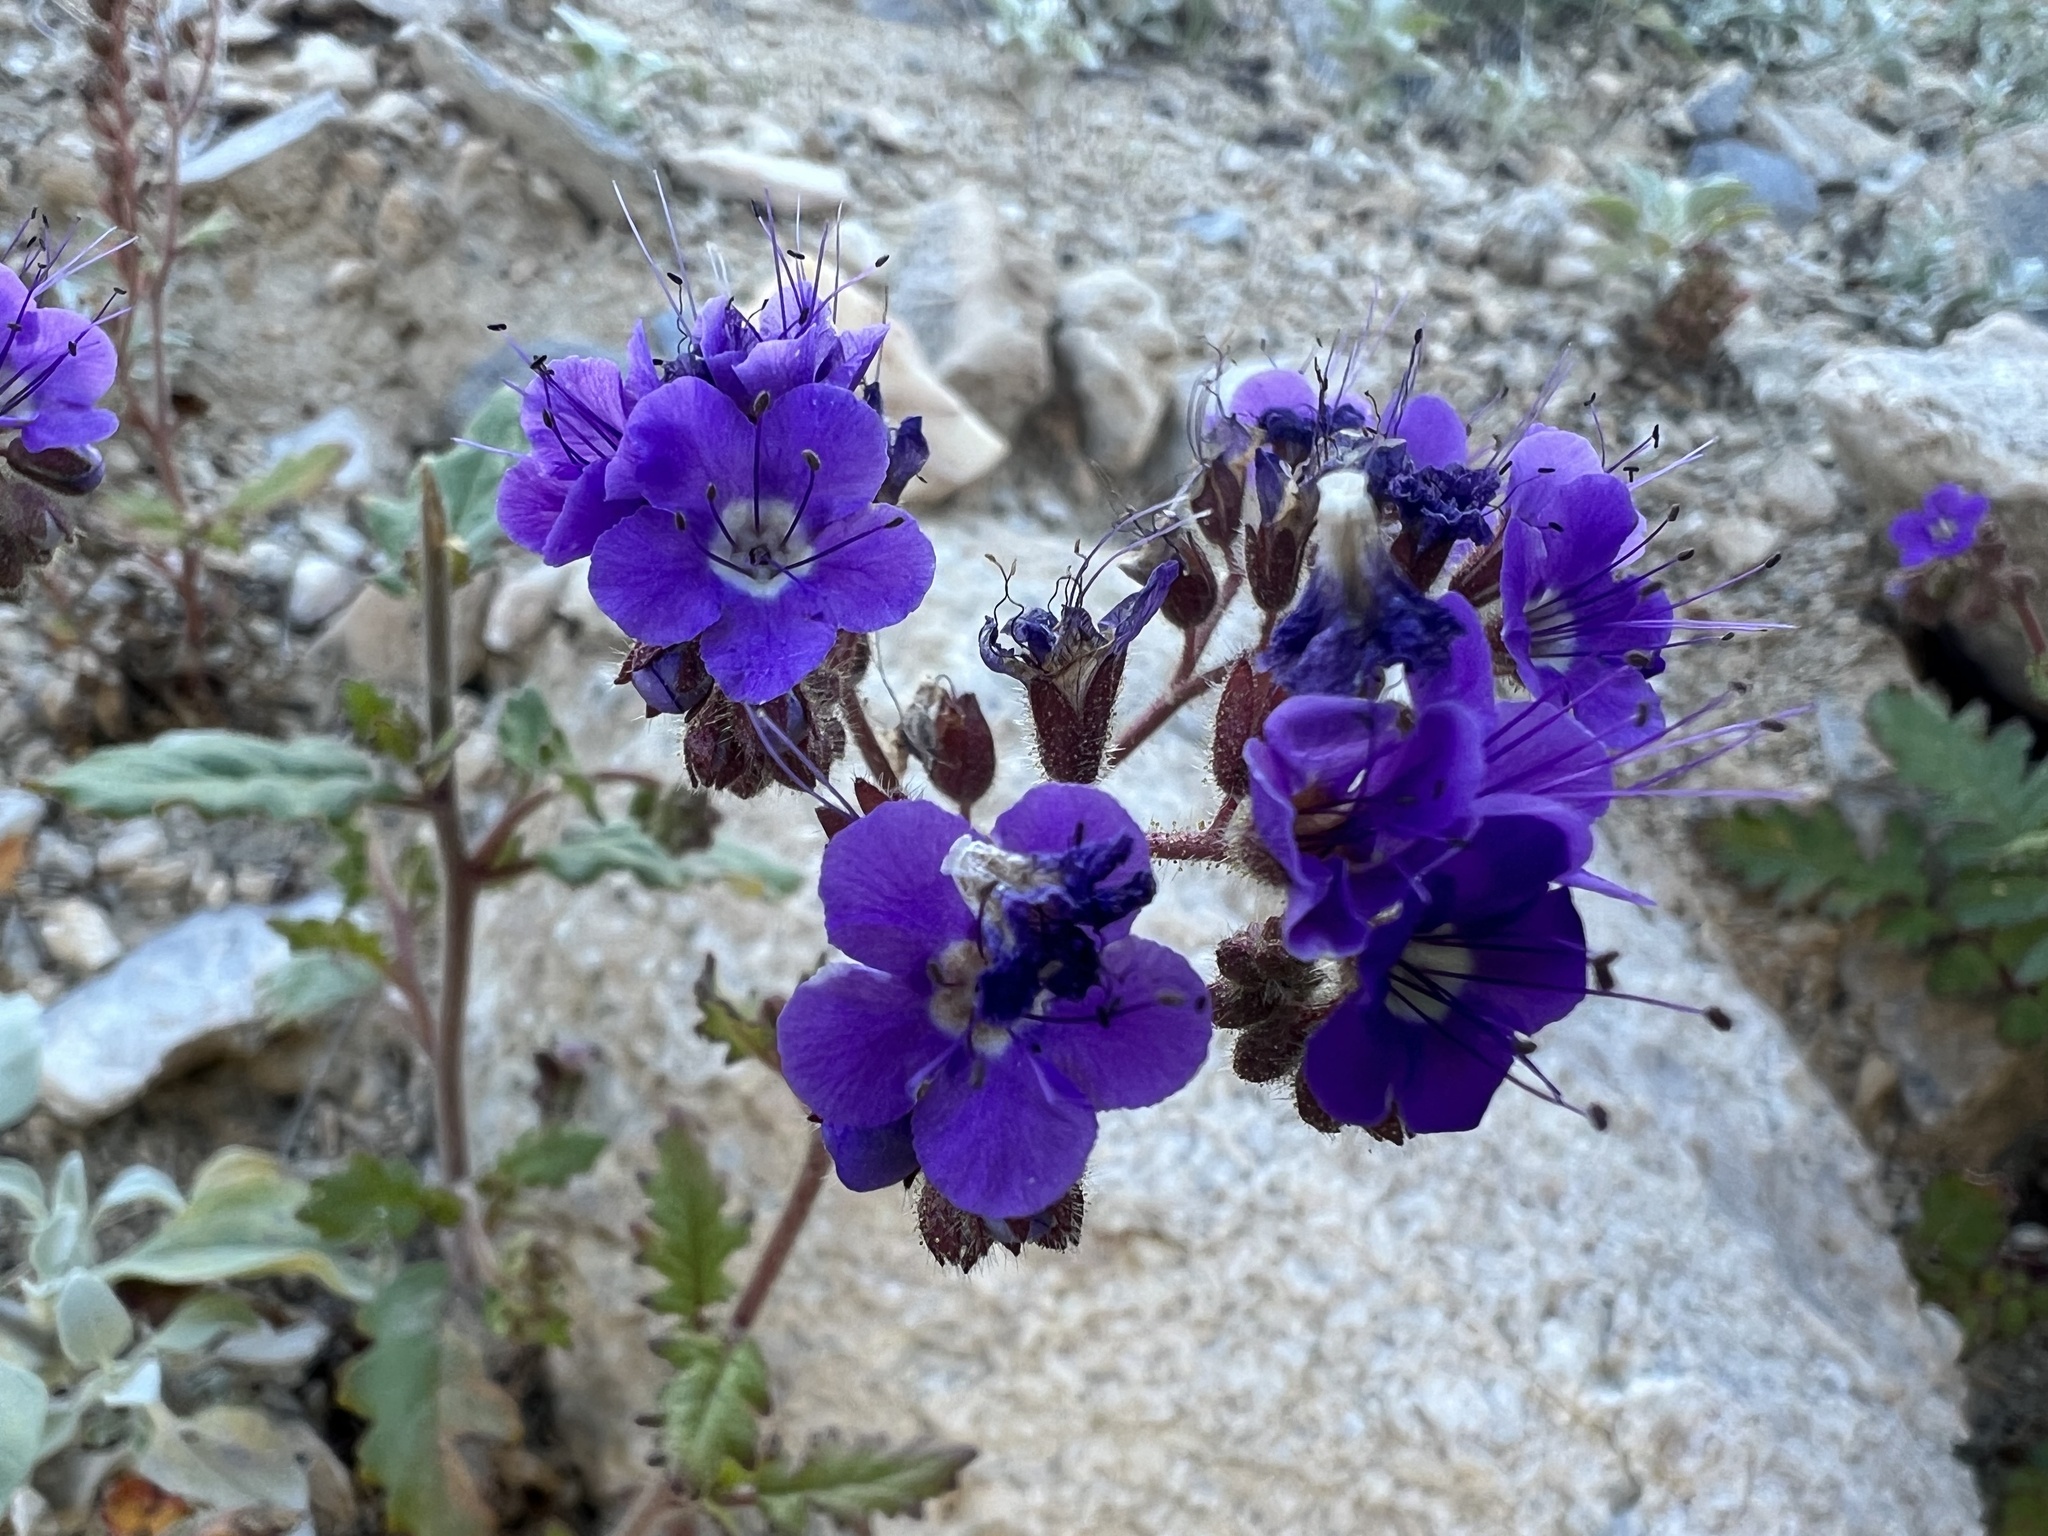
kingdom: Plantae
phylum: Tracheophyta
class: Magnoliopsida
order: Boraginales
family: Hydrophyllaceae
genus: Phacelia
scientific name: Phacelia crenulata
